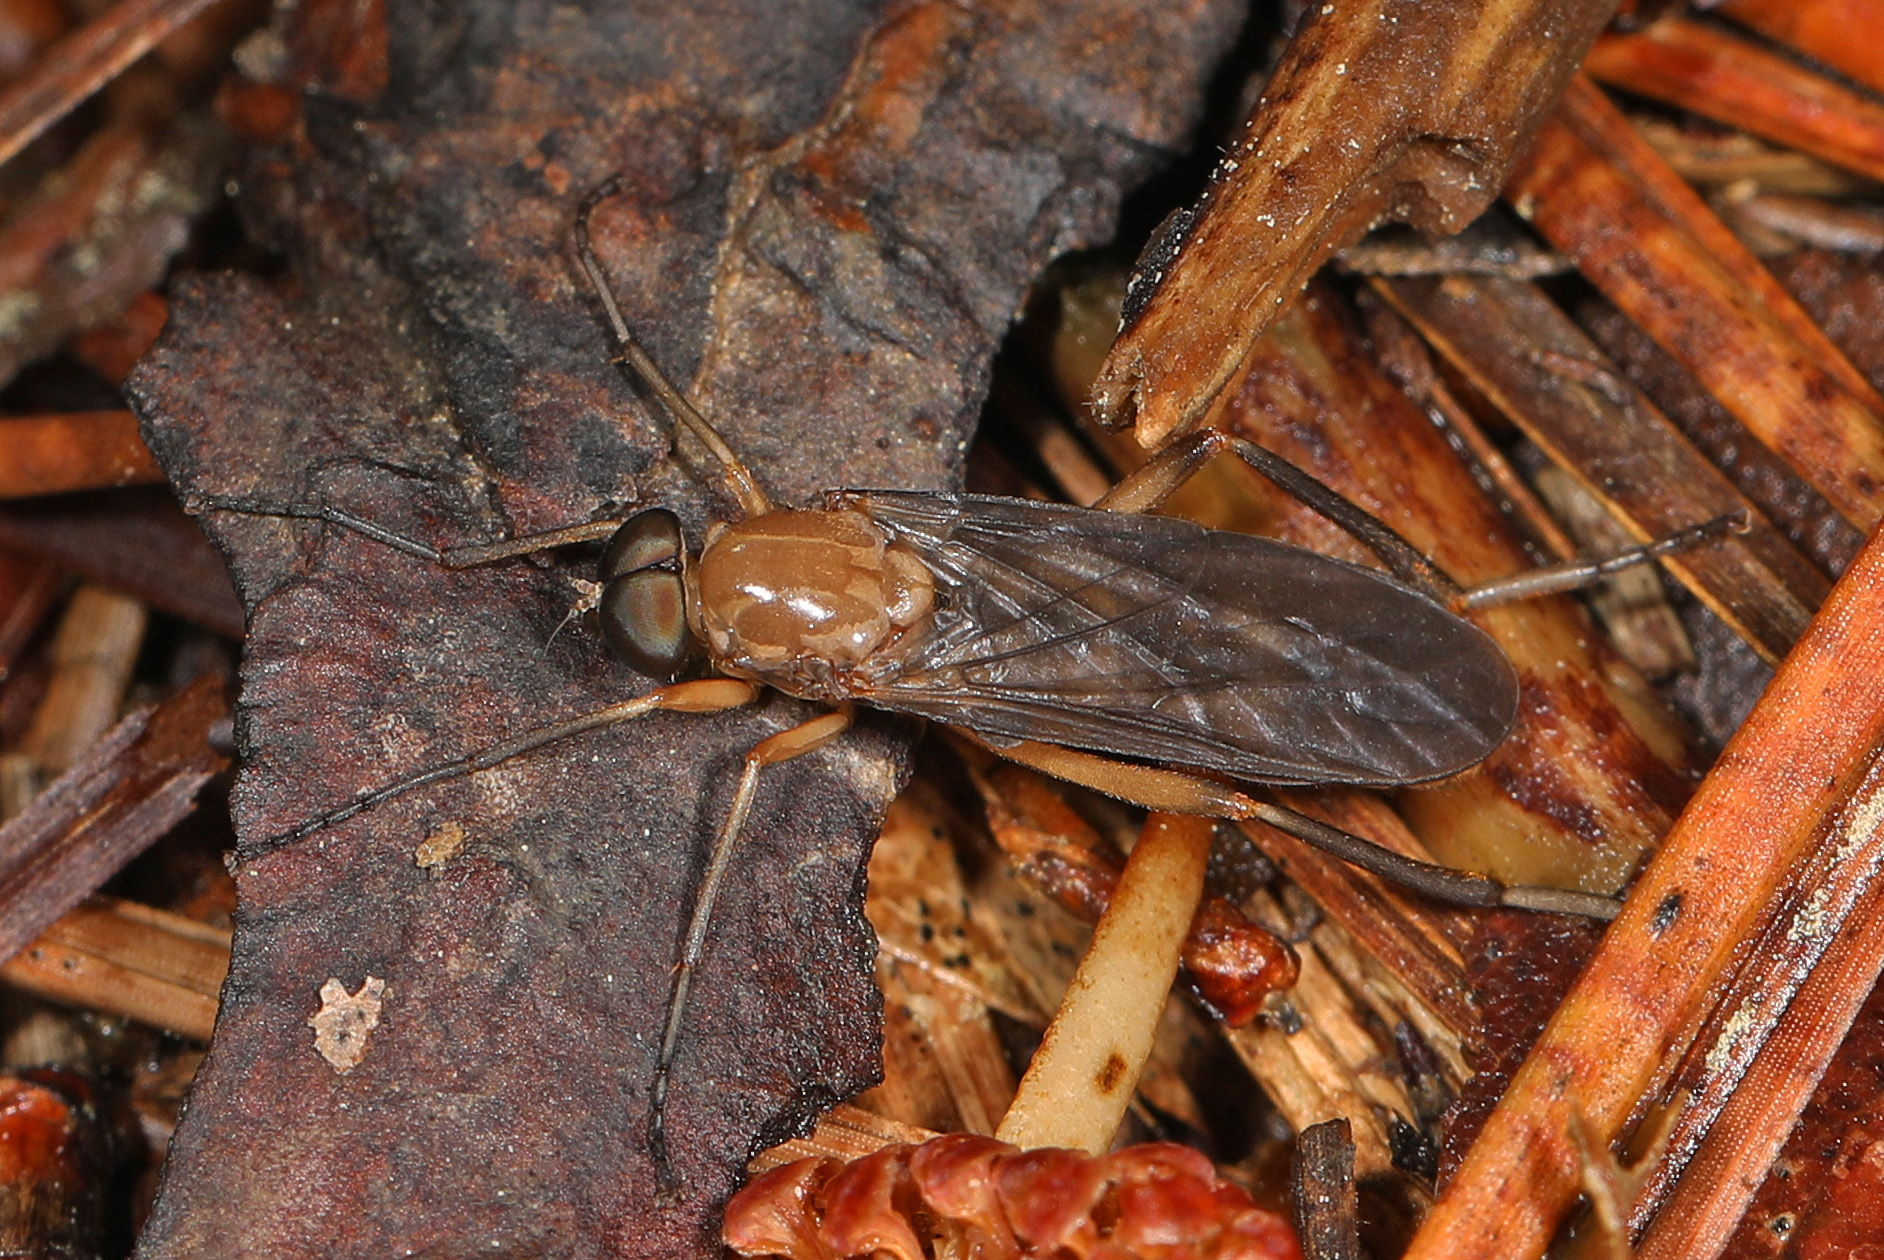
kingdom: Animalia
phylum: Arthropoda
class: Insecta
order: Diptera
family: Xylophagidae
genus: Dialysis
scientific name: Dialysis rufithorax
